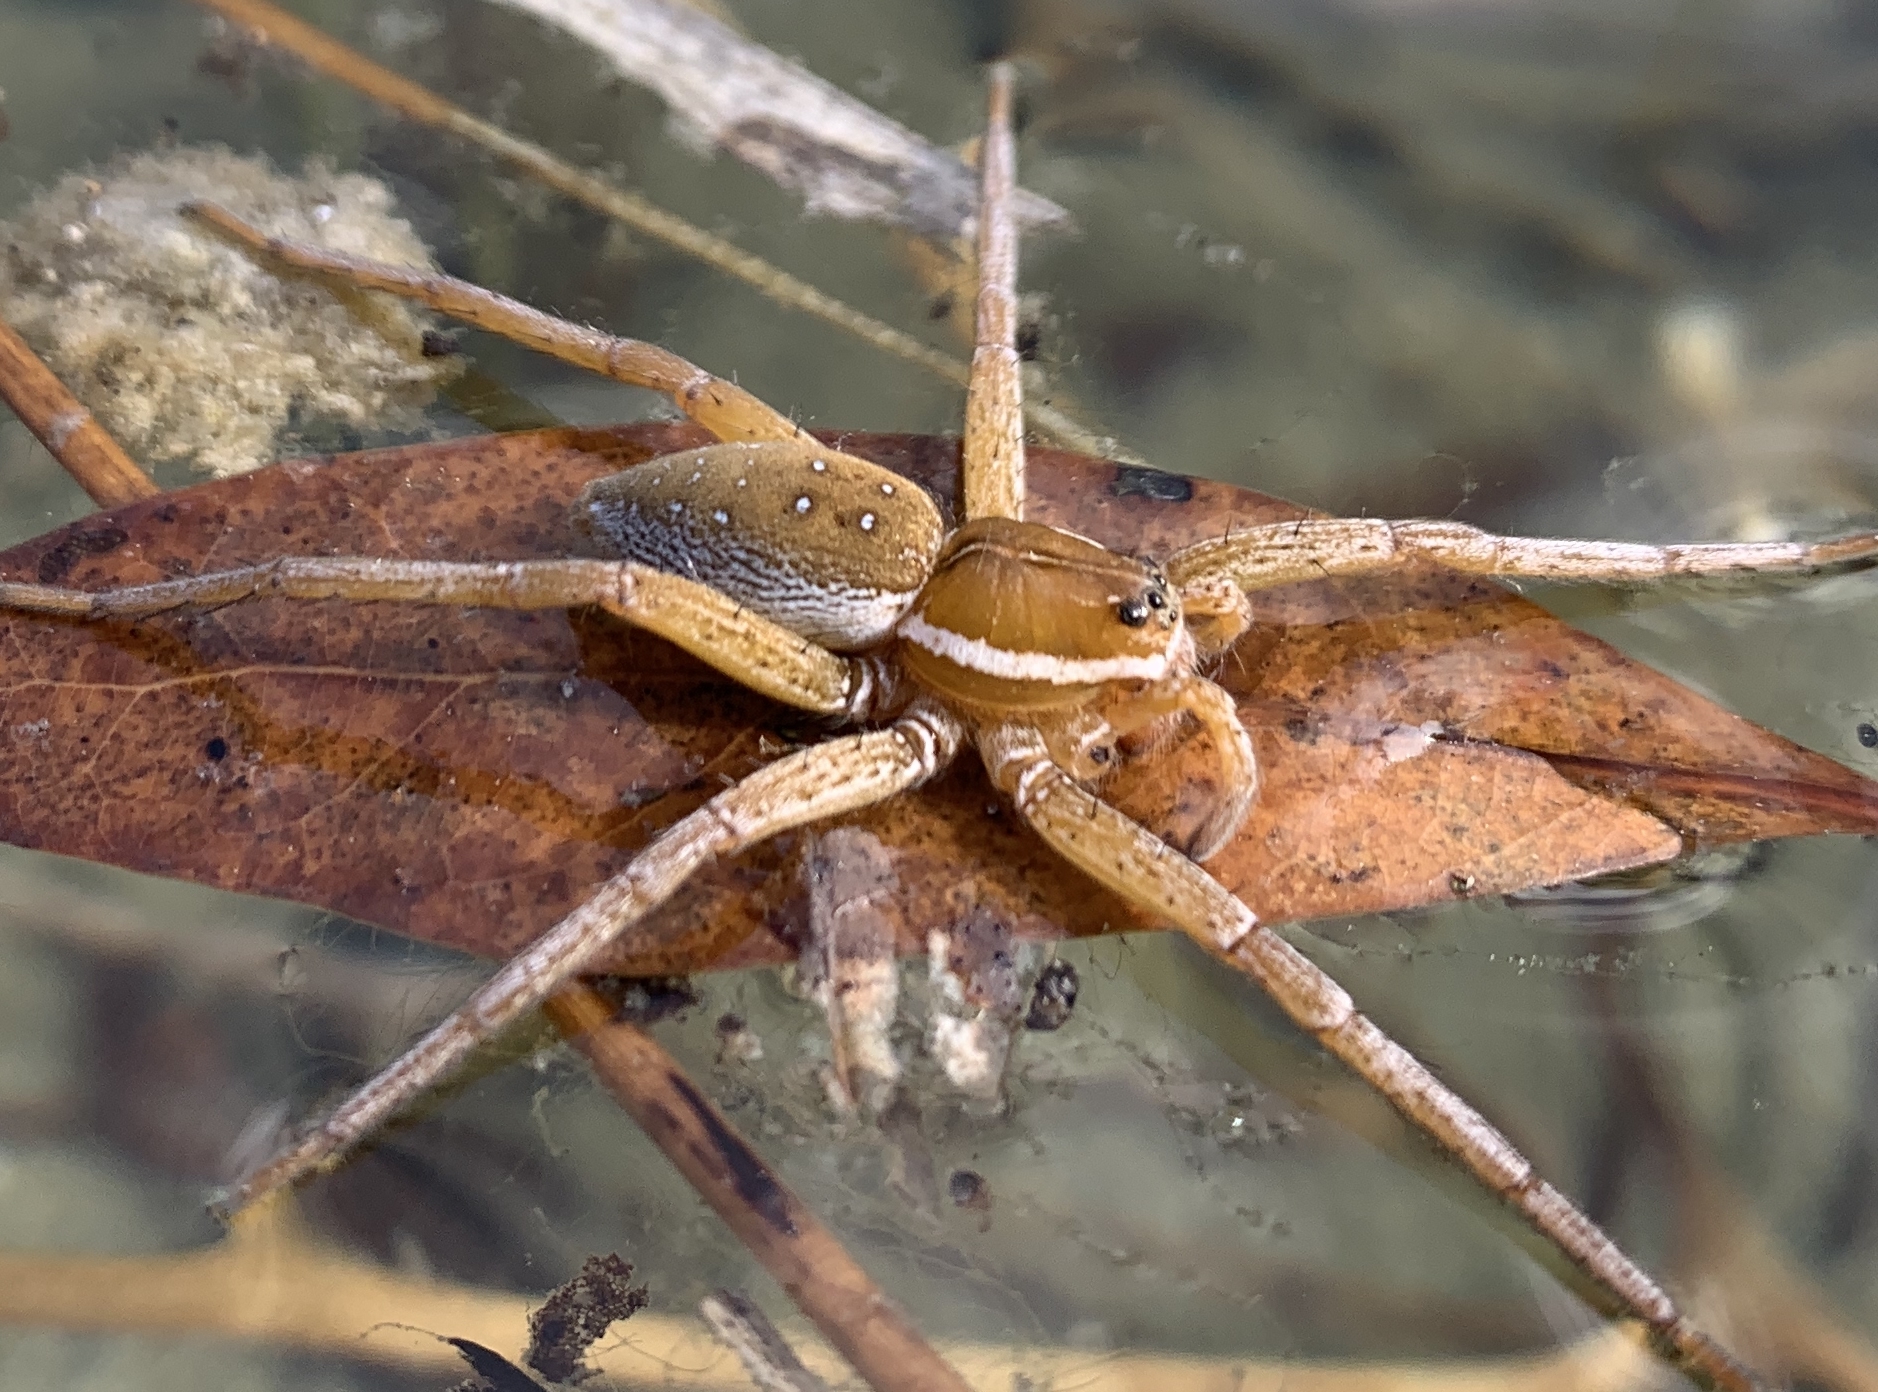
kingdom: Animalia
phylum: Arthropoda
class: Arachnida
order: Araneae
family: Pisauridae
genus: Dolomedes
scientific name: Dolomedes triton
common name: Six-spotted fishing spider
